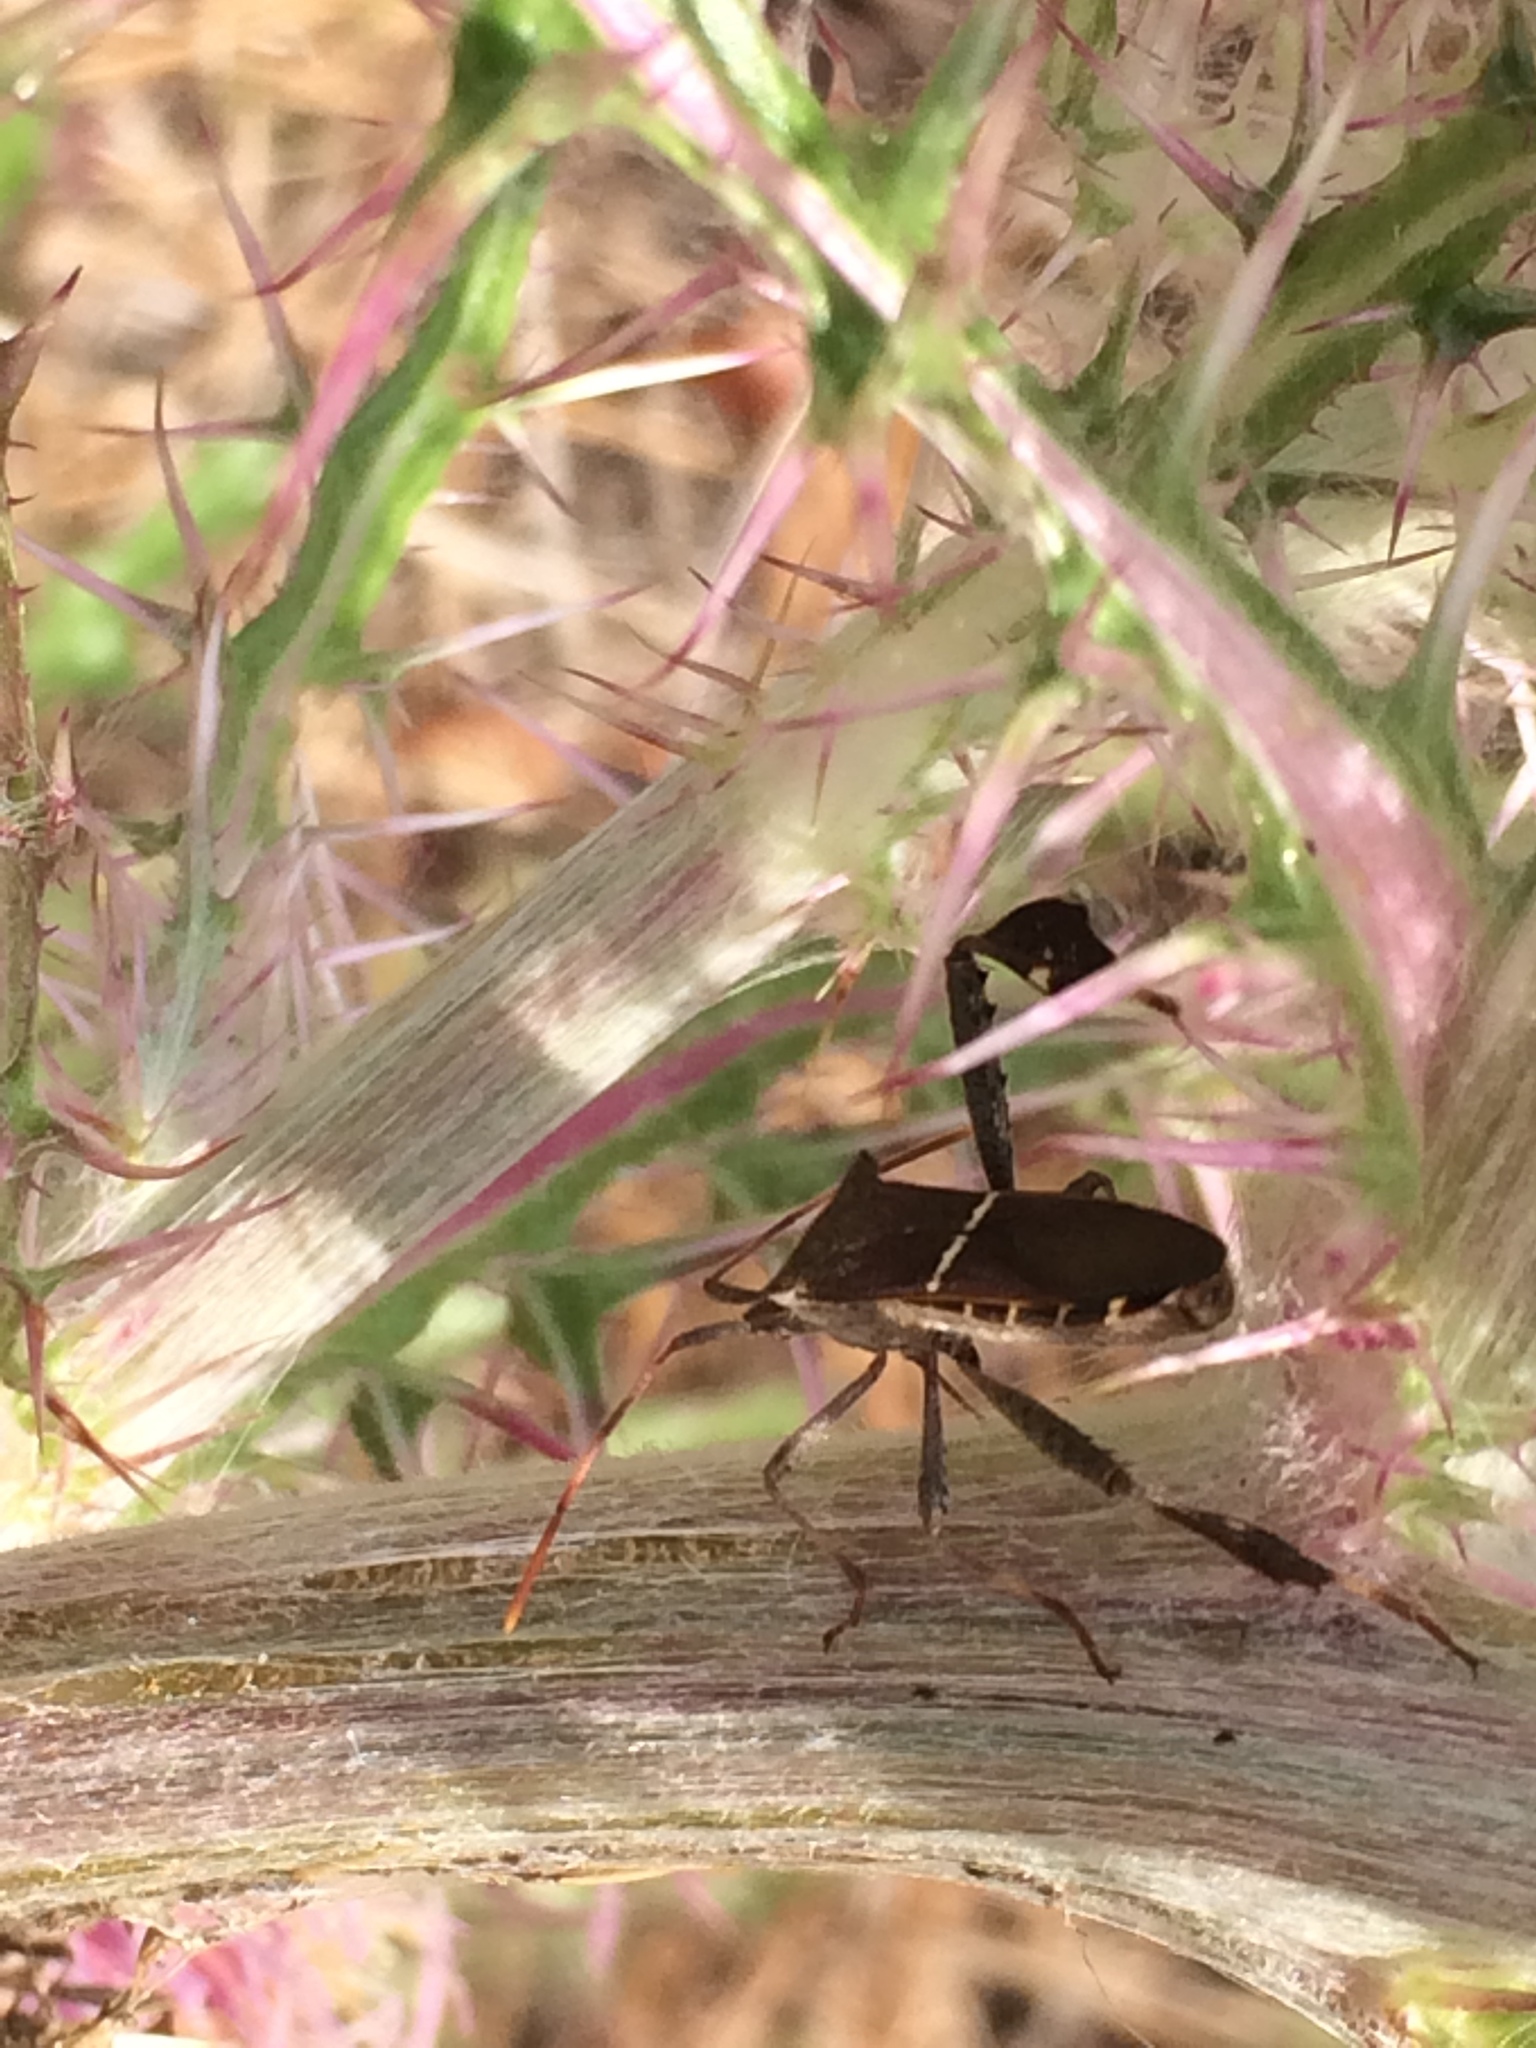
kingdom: Animalia
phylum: Arthropoda
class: Insecta
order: Hemiptera
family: Coreidae
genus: Leptoglossus
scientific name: Leptoglossus phyllopus
